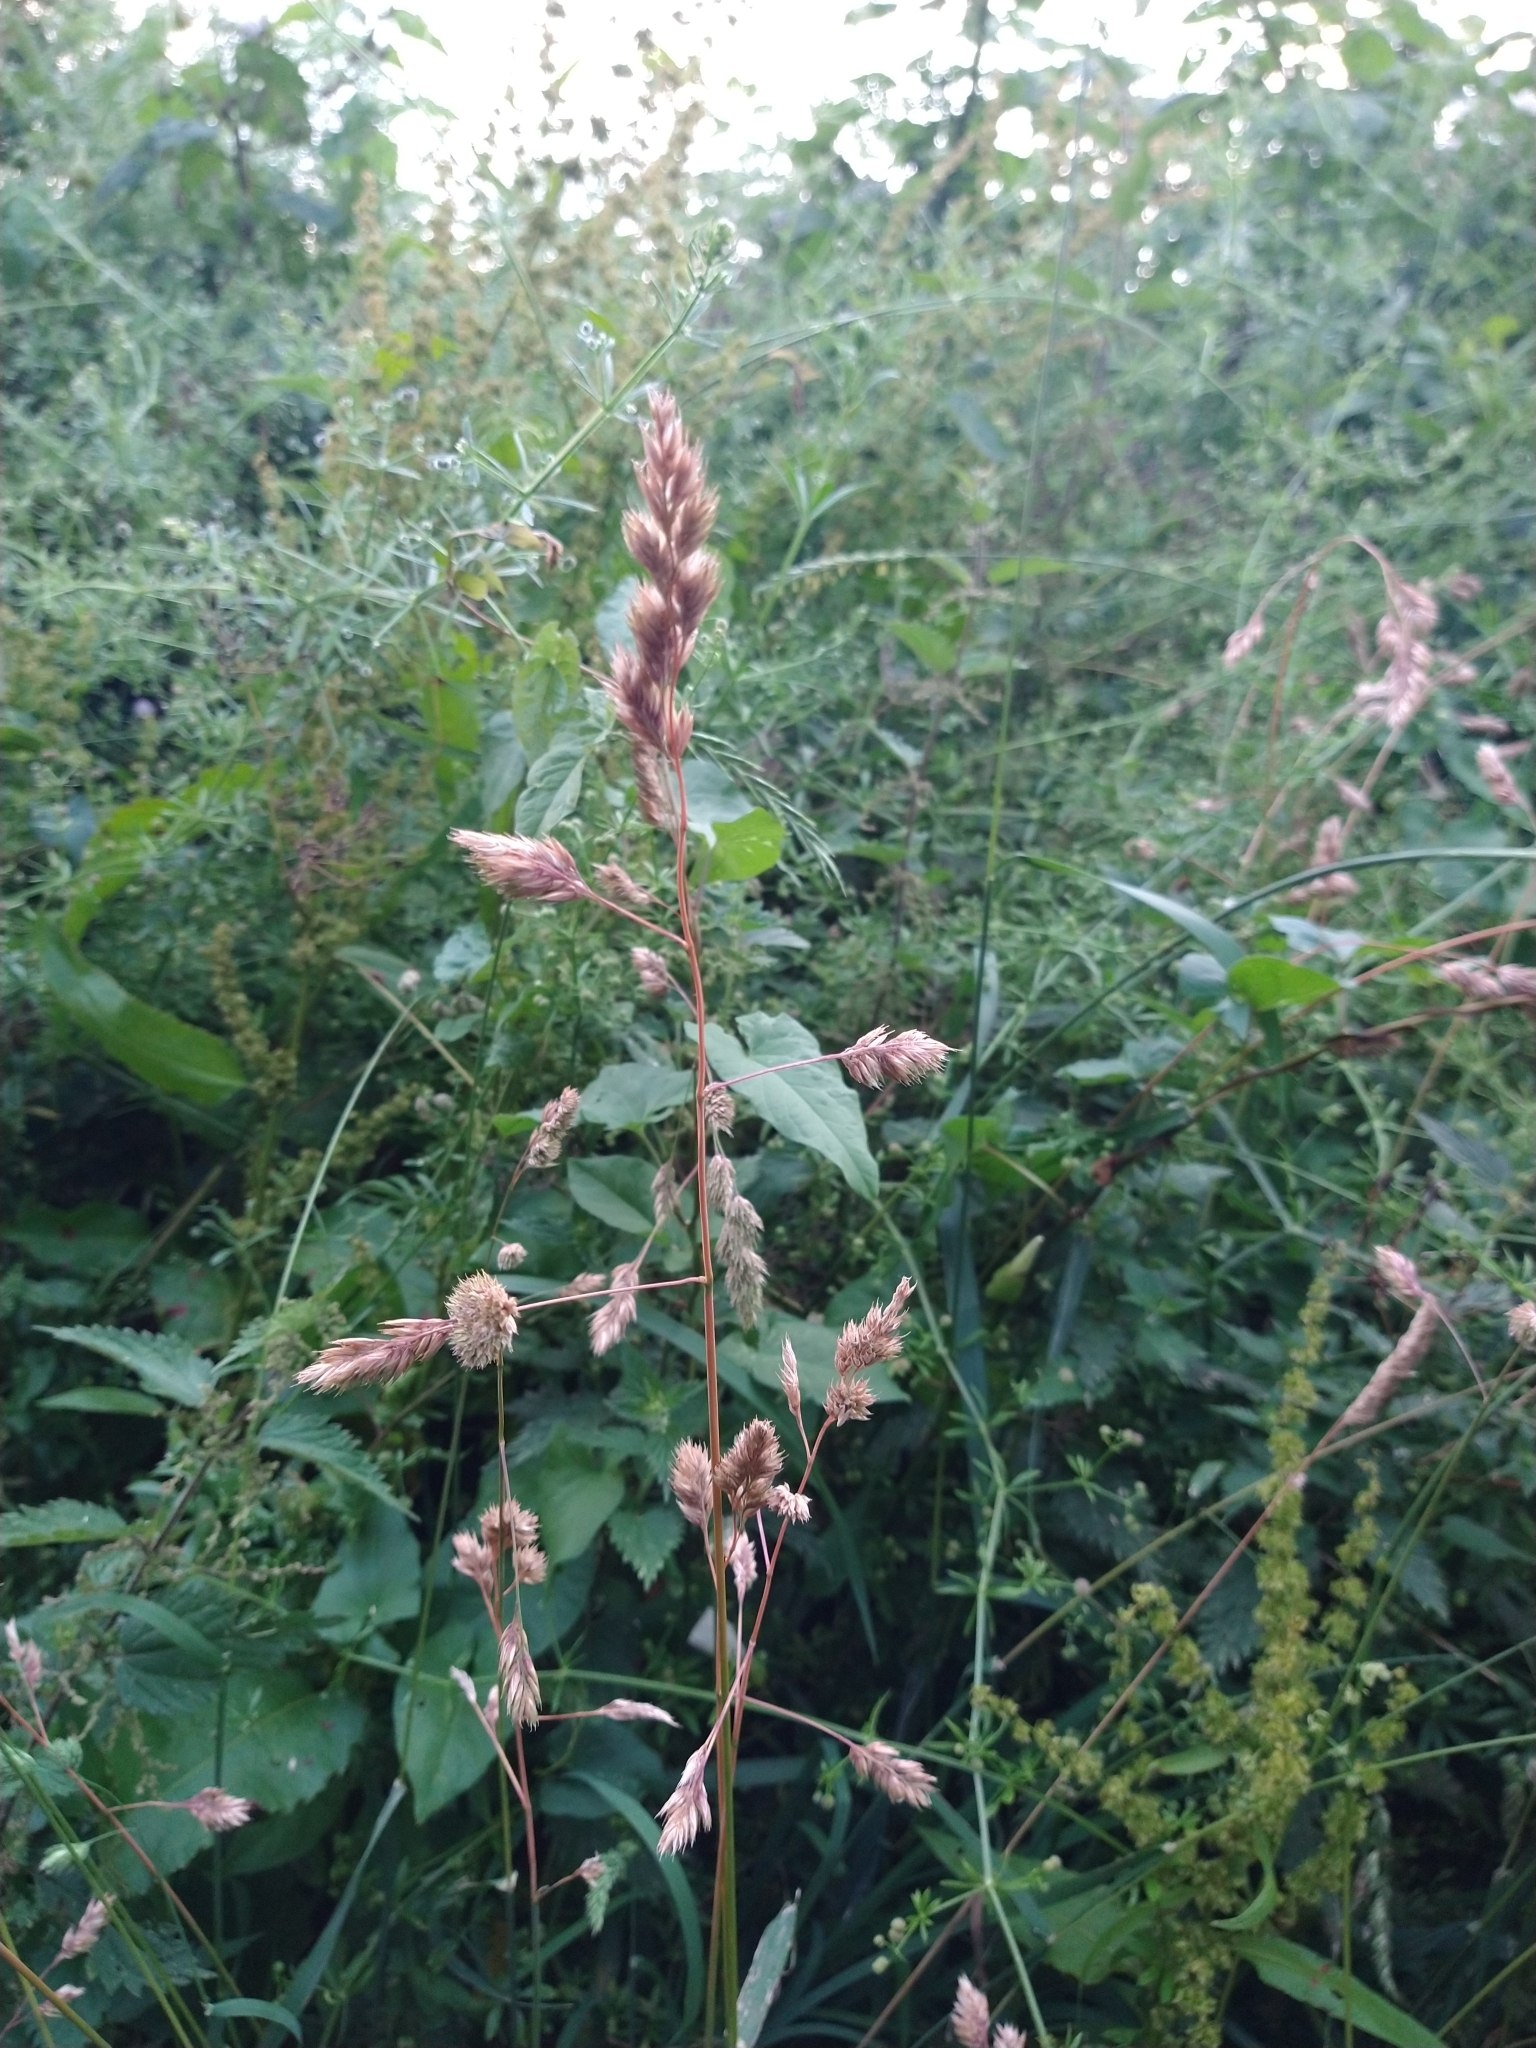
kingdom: Plantae
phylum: Tracheophyta
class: Liliopsida
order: Poales
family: Poaceae
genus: Dactylis
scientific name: Dactylis glomerata
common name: Orchardgrass
